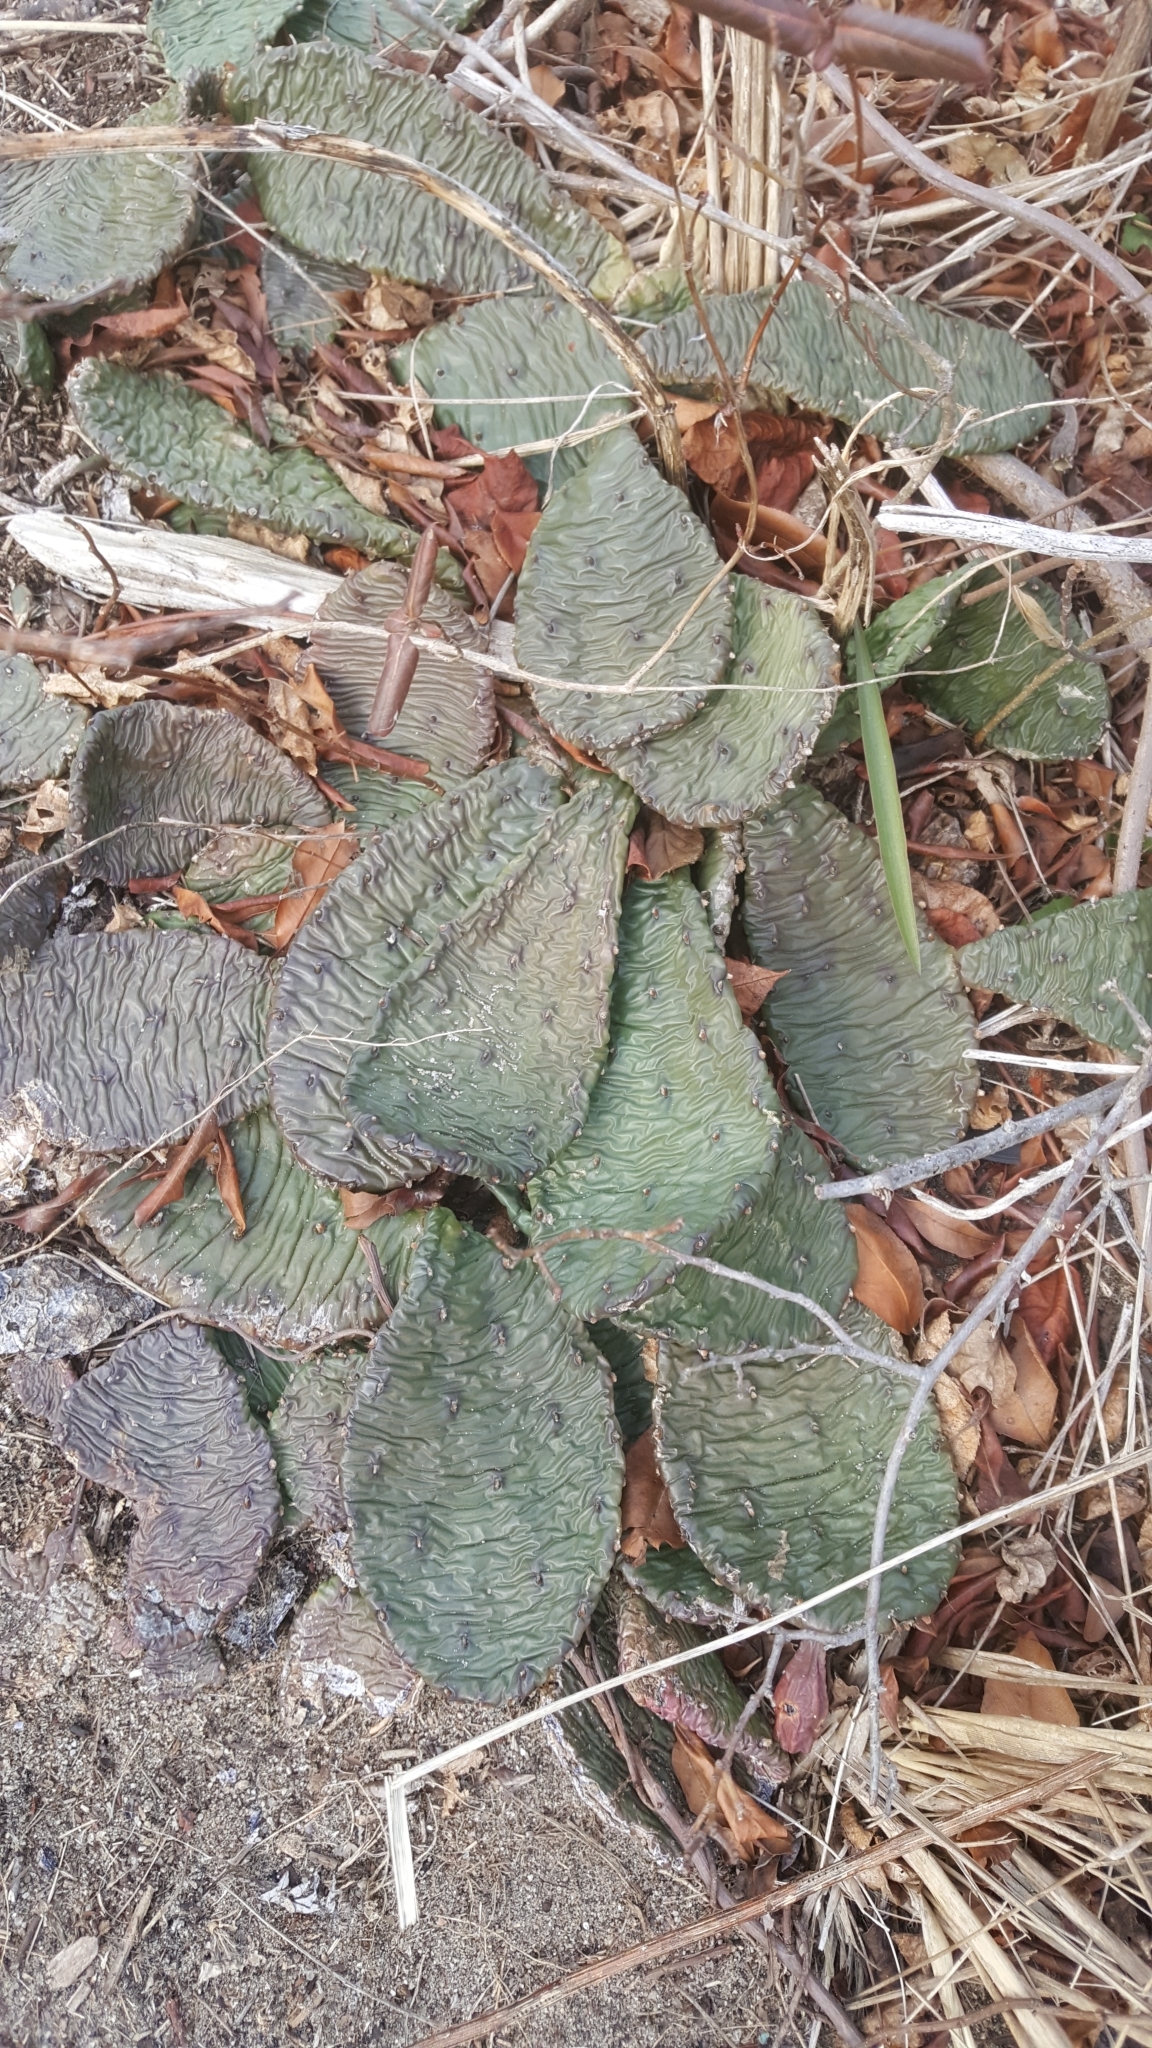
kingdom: Plantae
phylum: Tracheophyta
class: Magnoliopsida
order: Caryophyllales
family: Cactaceae
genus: Opuntia
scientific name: Opuntia humifusa
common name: Eastern prickly-pear
